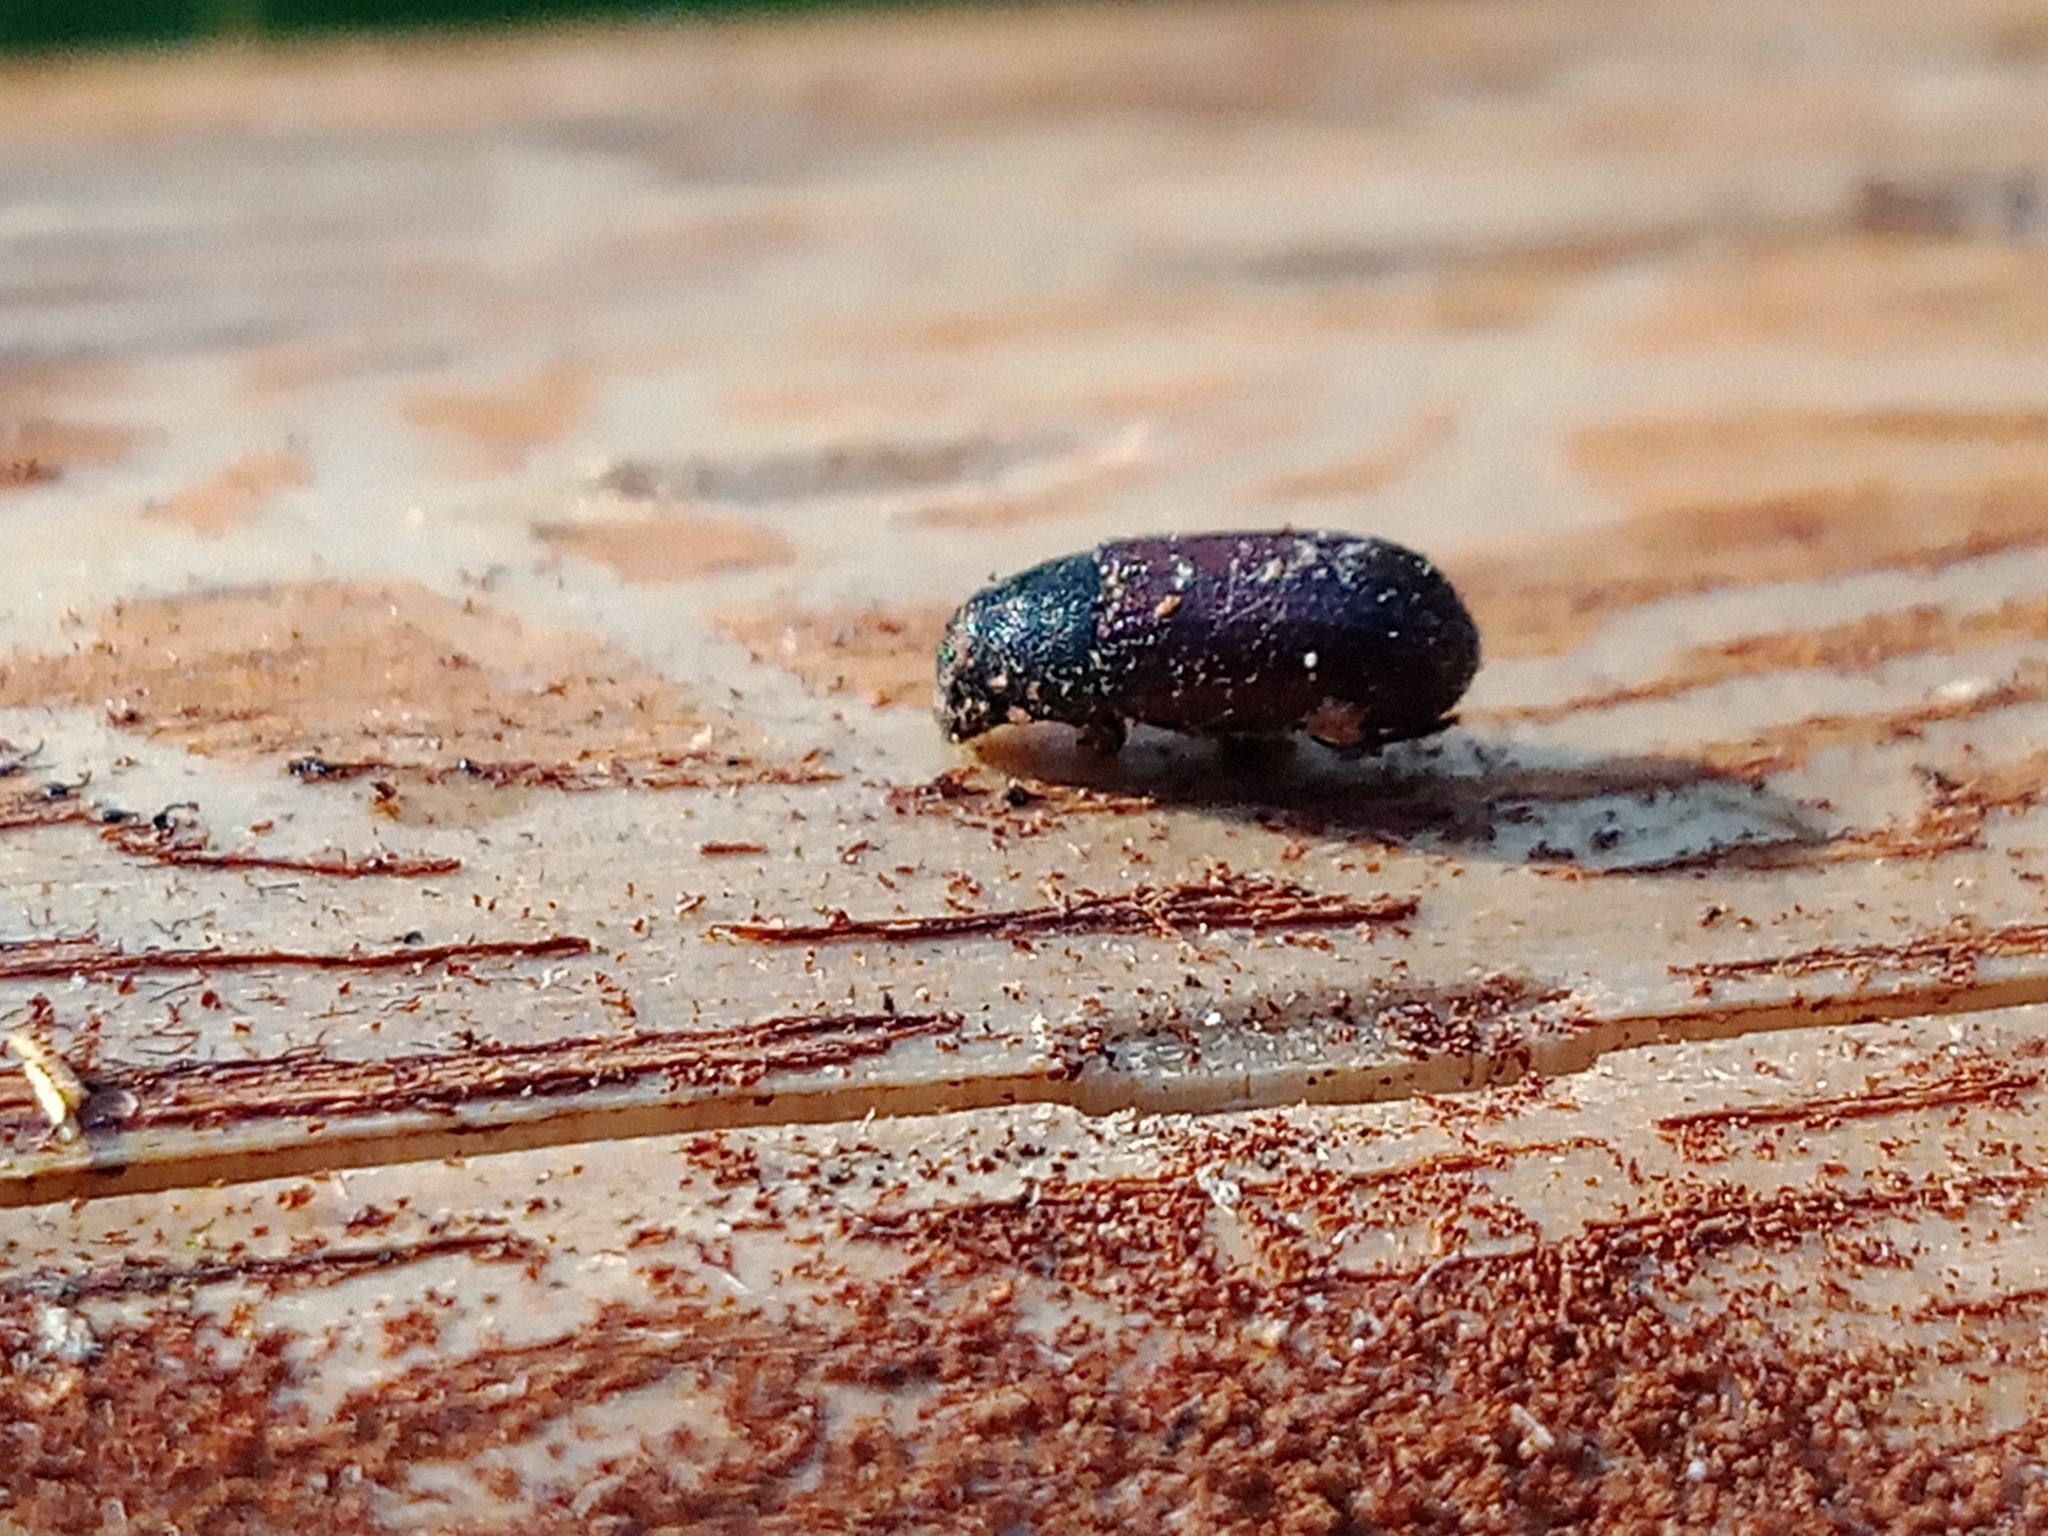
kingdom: Animalia
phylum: Arthropoda
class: Insecta
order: Coleoptera
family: Curculionidae
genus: Tomicus
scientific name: Tomicus piniperda
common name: Large pine shoot beetle
